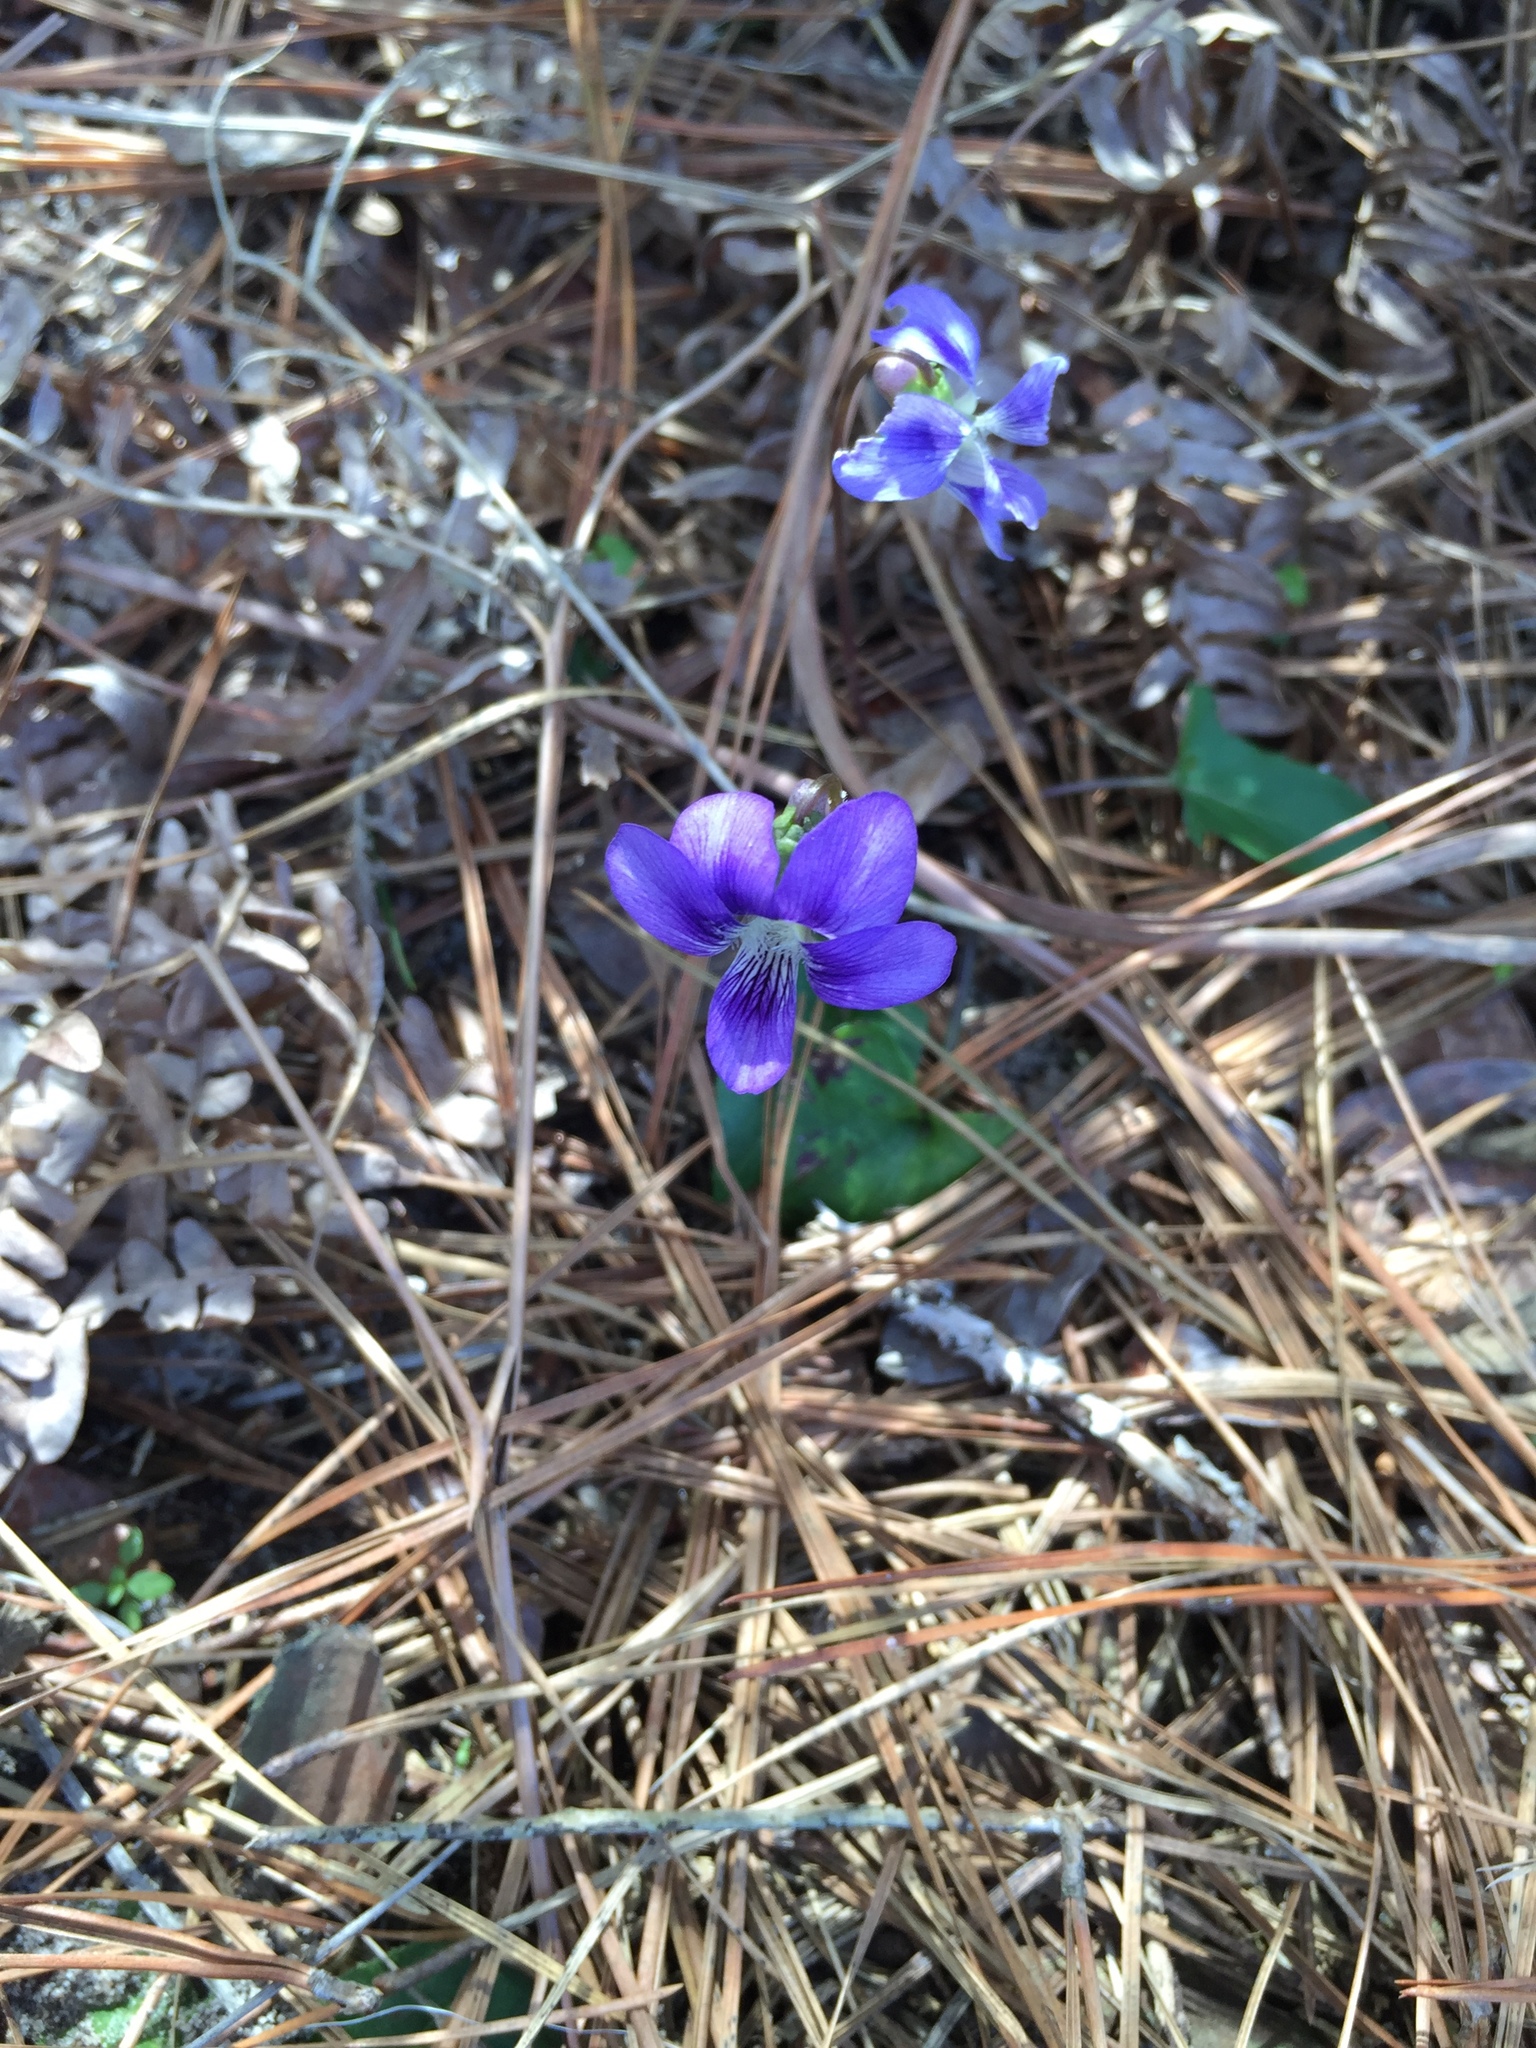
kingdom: Plantae
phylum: Tracheophyta
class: Magnoliopsida
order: Malpighiales
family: Violaceae
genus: Viola
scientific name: Viola sagittata
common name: Arrowhead violet
